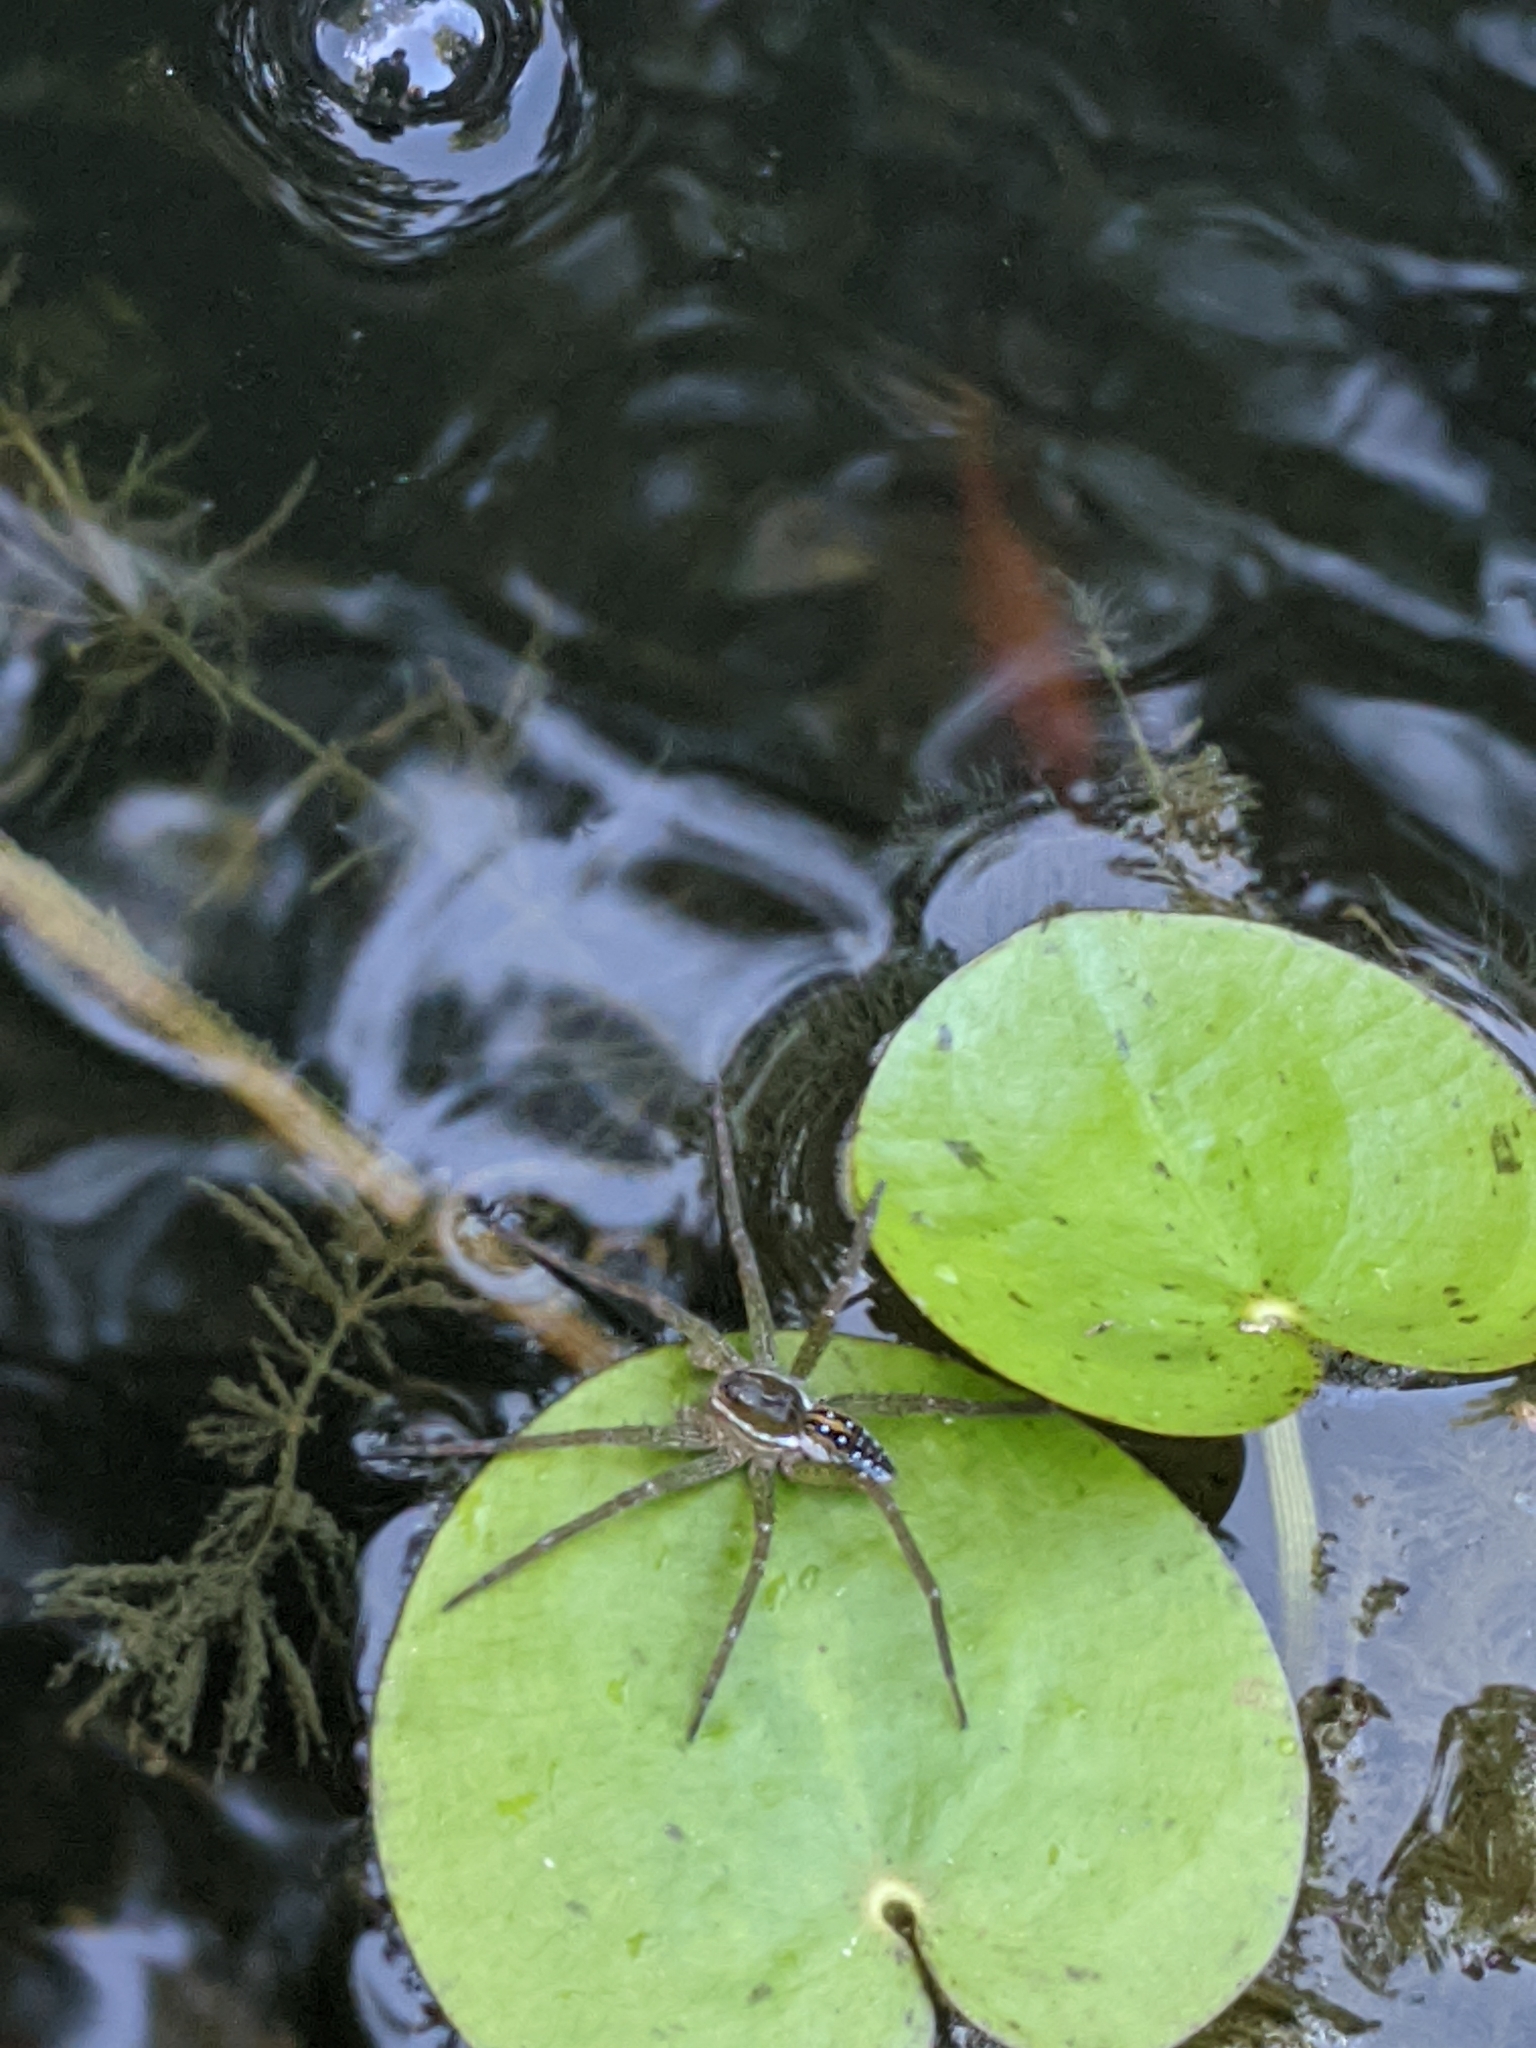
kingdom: Animalia
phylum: Arthropoda
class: Arachnida
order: Araneae
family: Pisauridae
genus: Dolomedes
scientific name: Dolomedes triton
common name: Six-spotted fishing spider
